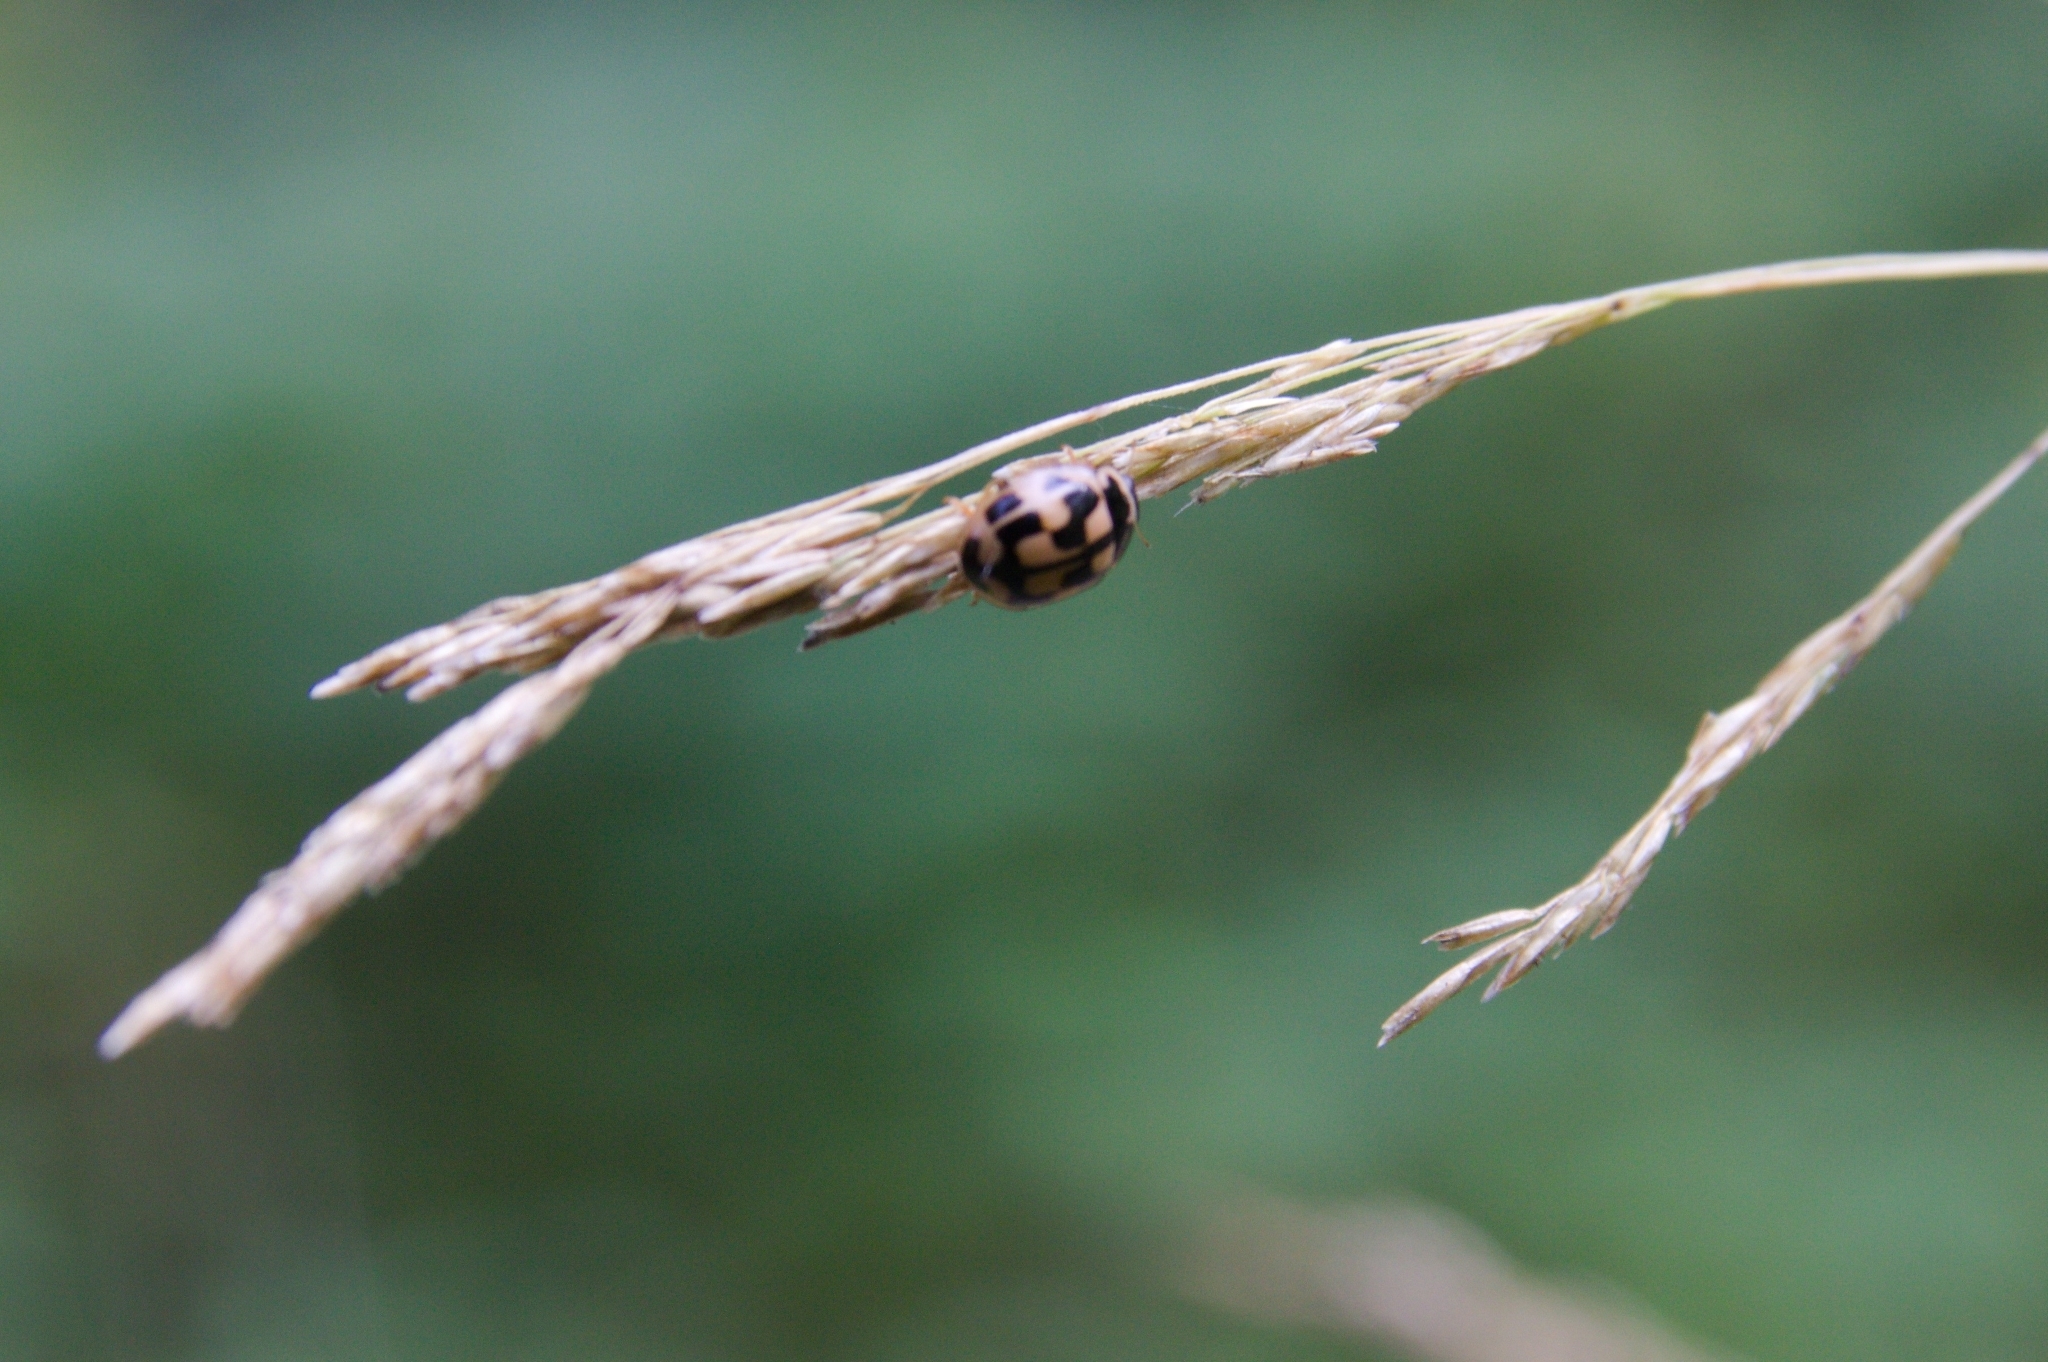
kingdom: Animalia
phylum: Arthropoda
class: Insecta
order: Coleoptera
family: Coccinellidae
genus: Propylaea
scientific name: Propylaea quatuordecimpunctata
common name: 14-spotted ladybird beetle
